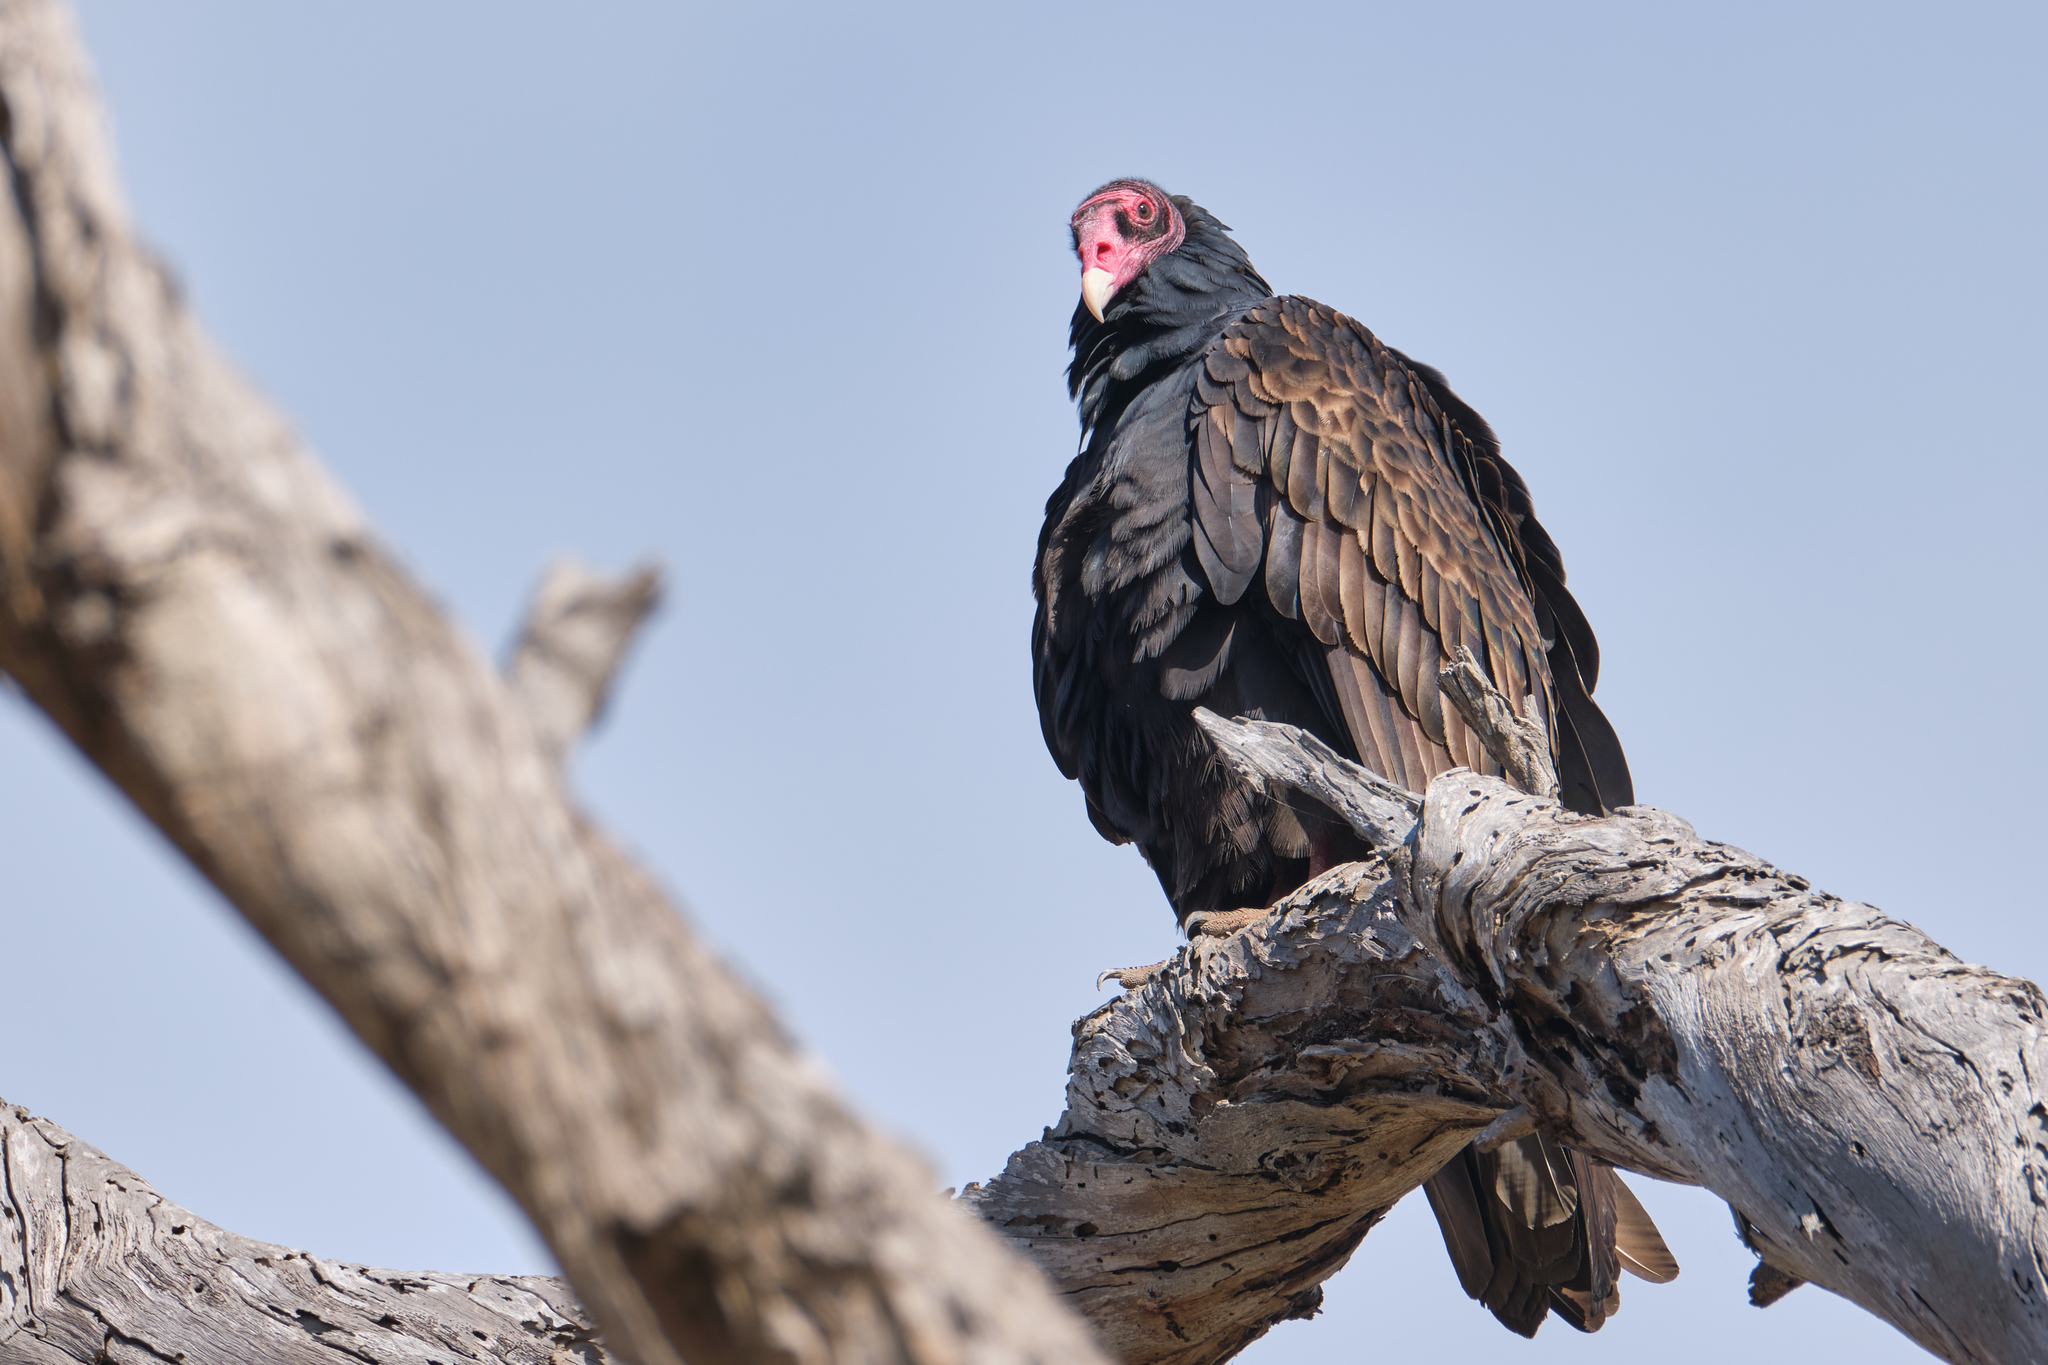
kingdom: Animalia
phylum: Chordata
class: Aves
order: Accipitriformes
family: Cathartidae
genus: Cathartes
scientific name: Cathartes aura
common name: Turkey vulture
